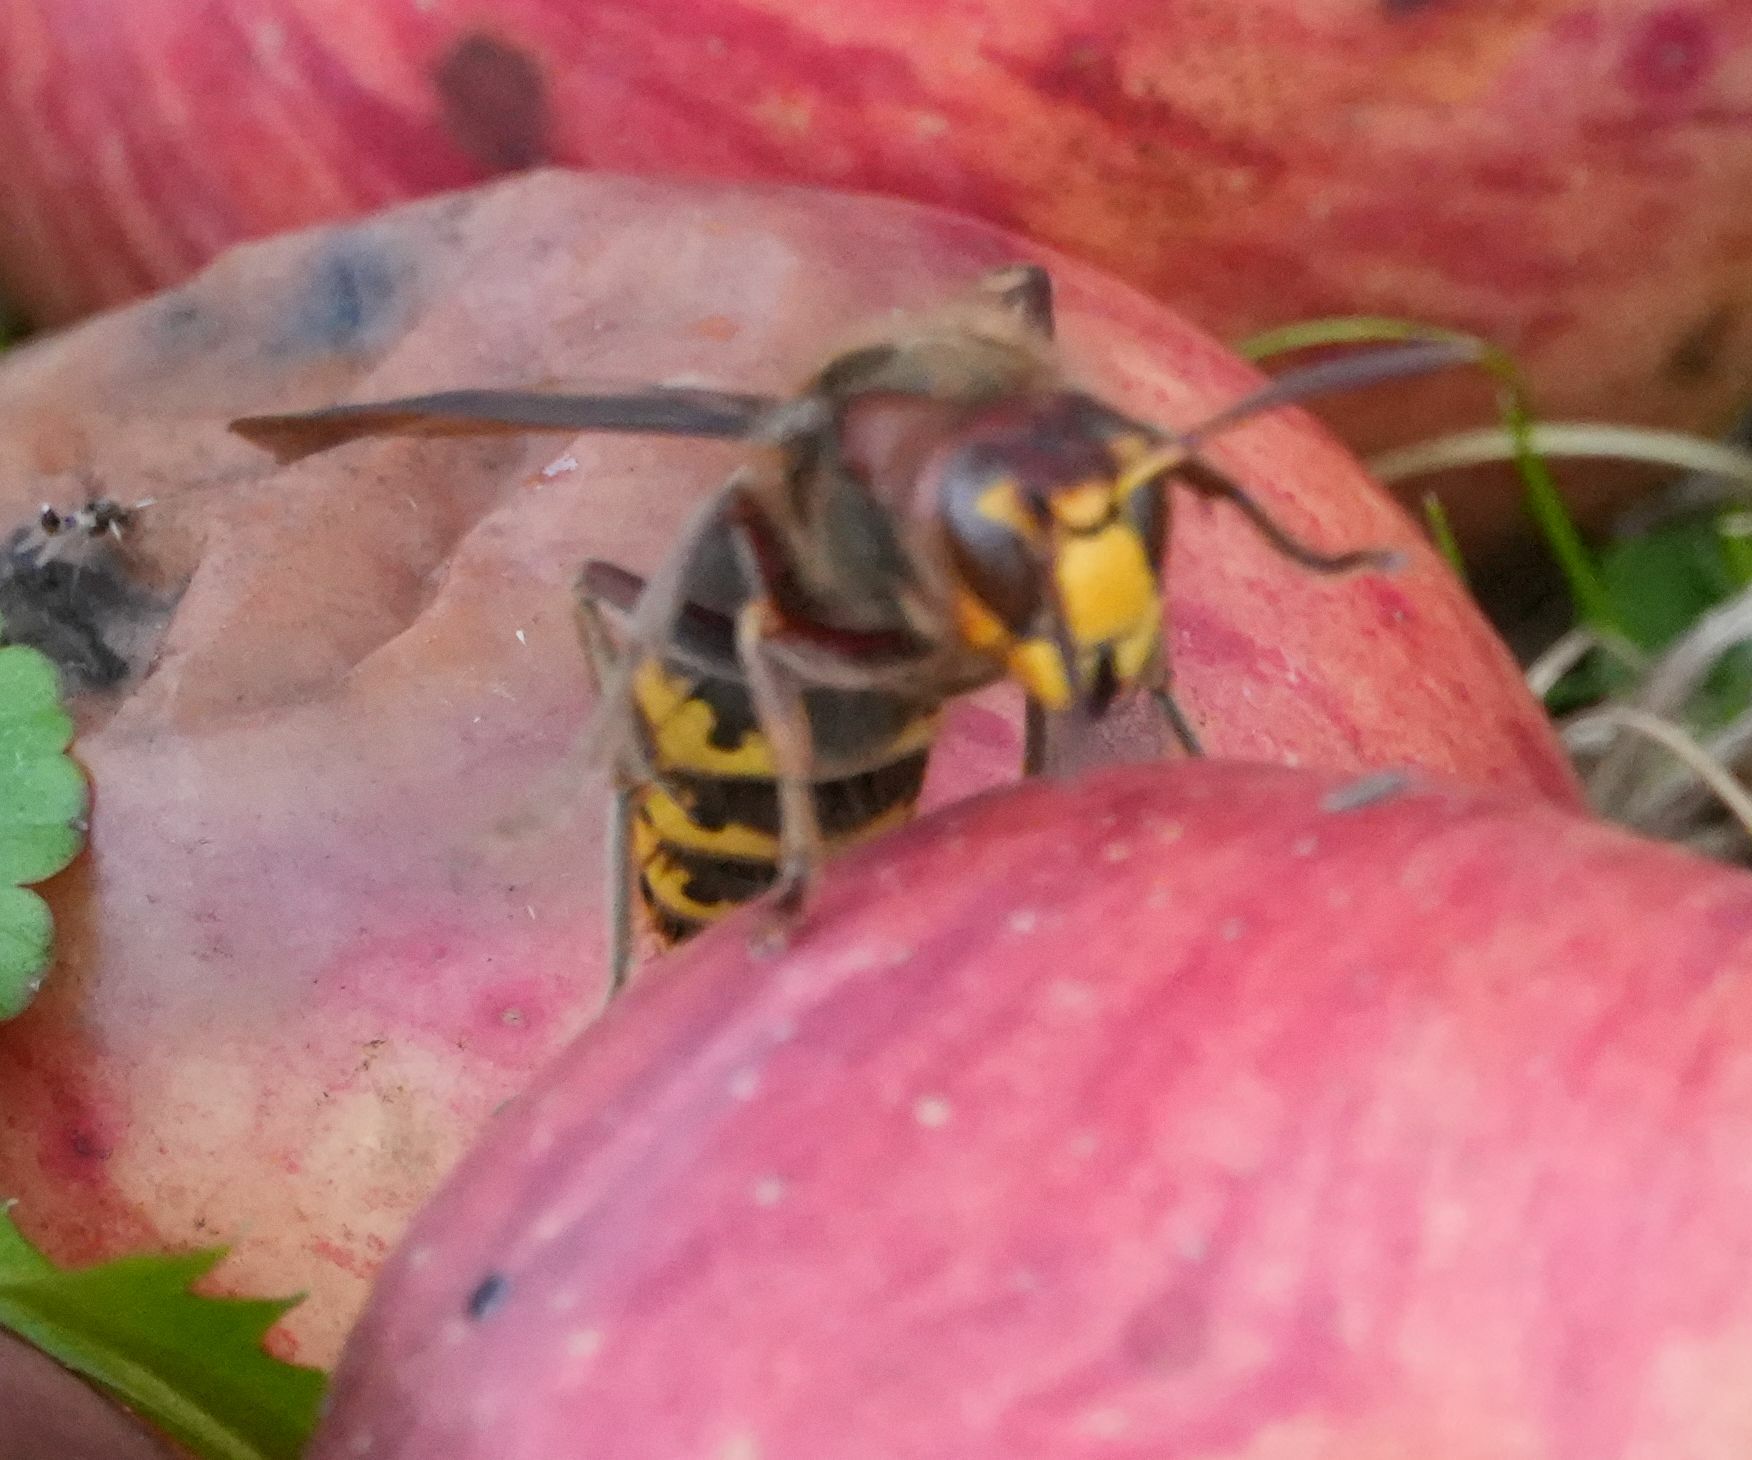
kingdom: Animalia
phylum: Arthropoda
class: Insecta
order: Hymenoptera
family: Vespidae
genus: Vespa
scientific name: Vespa crabro
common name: Hornet
